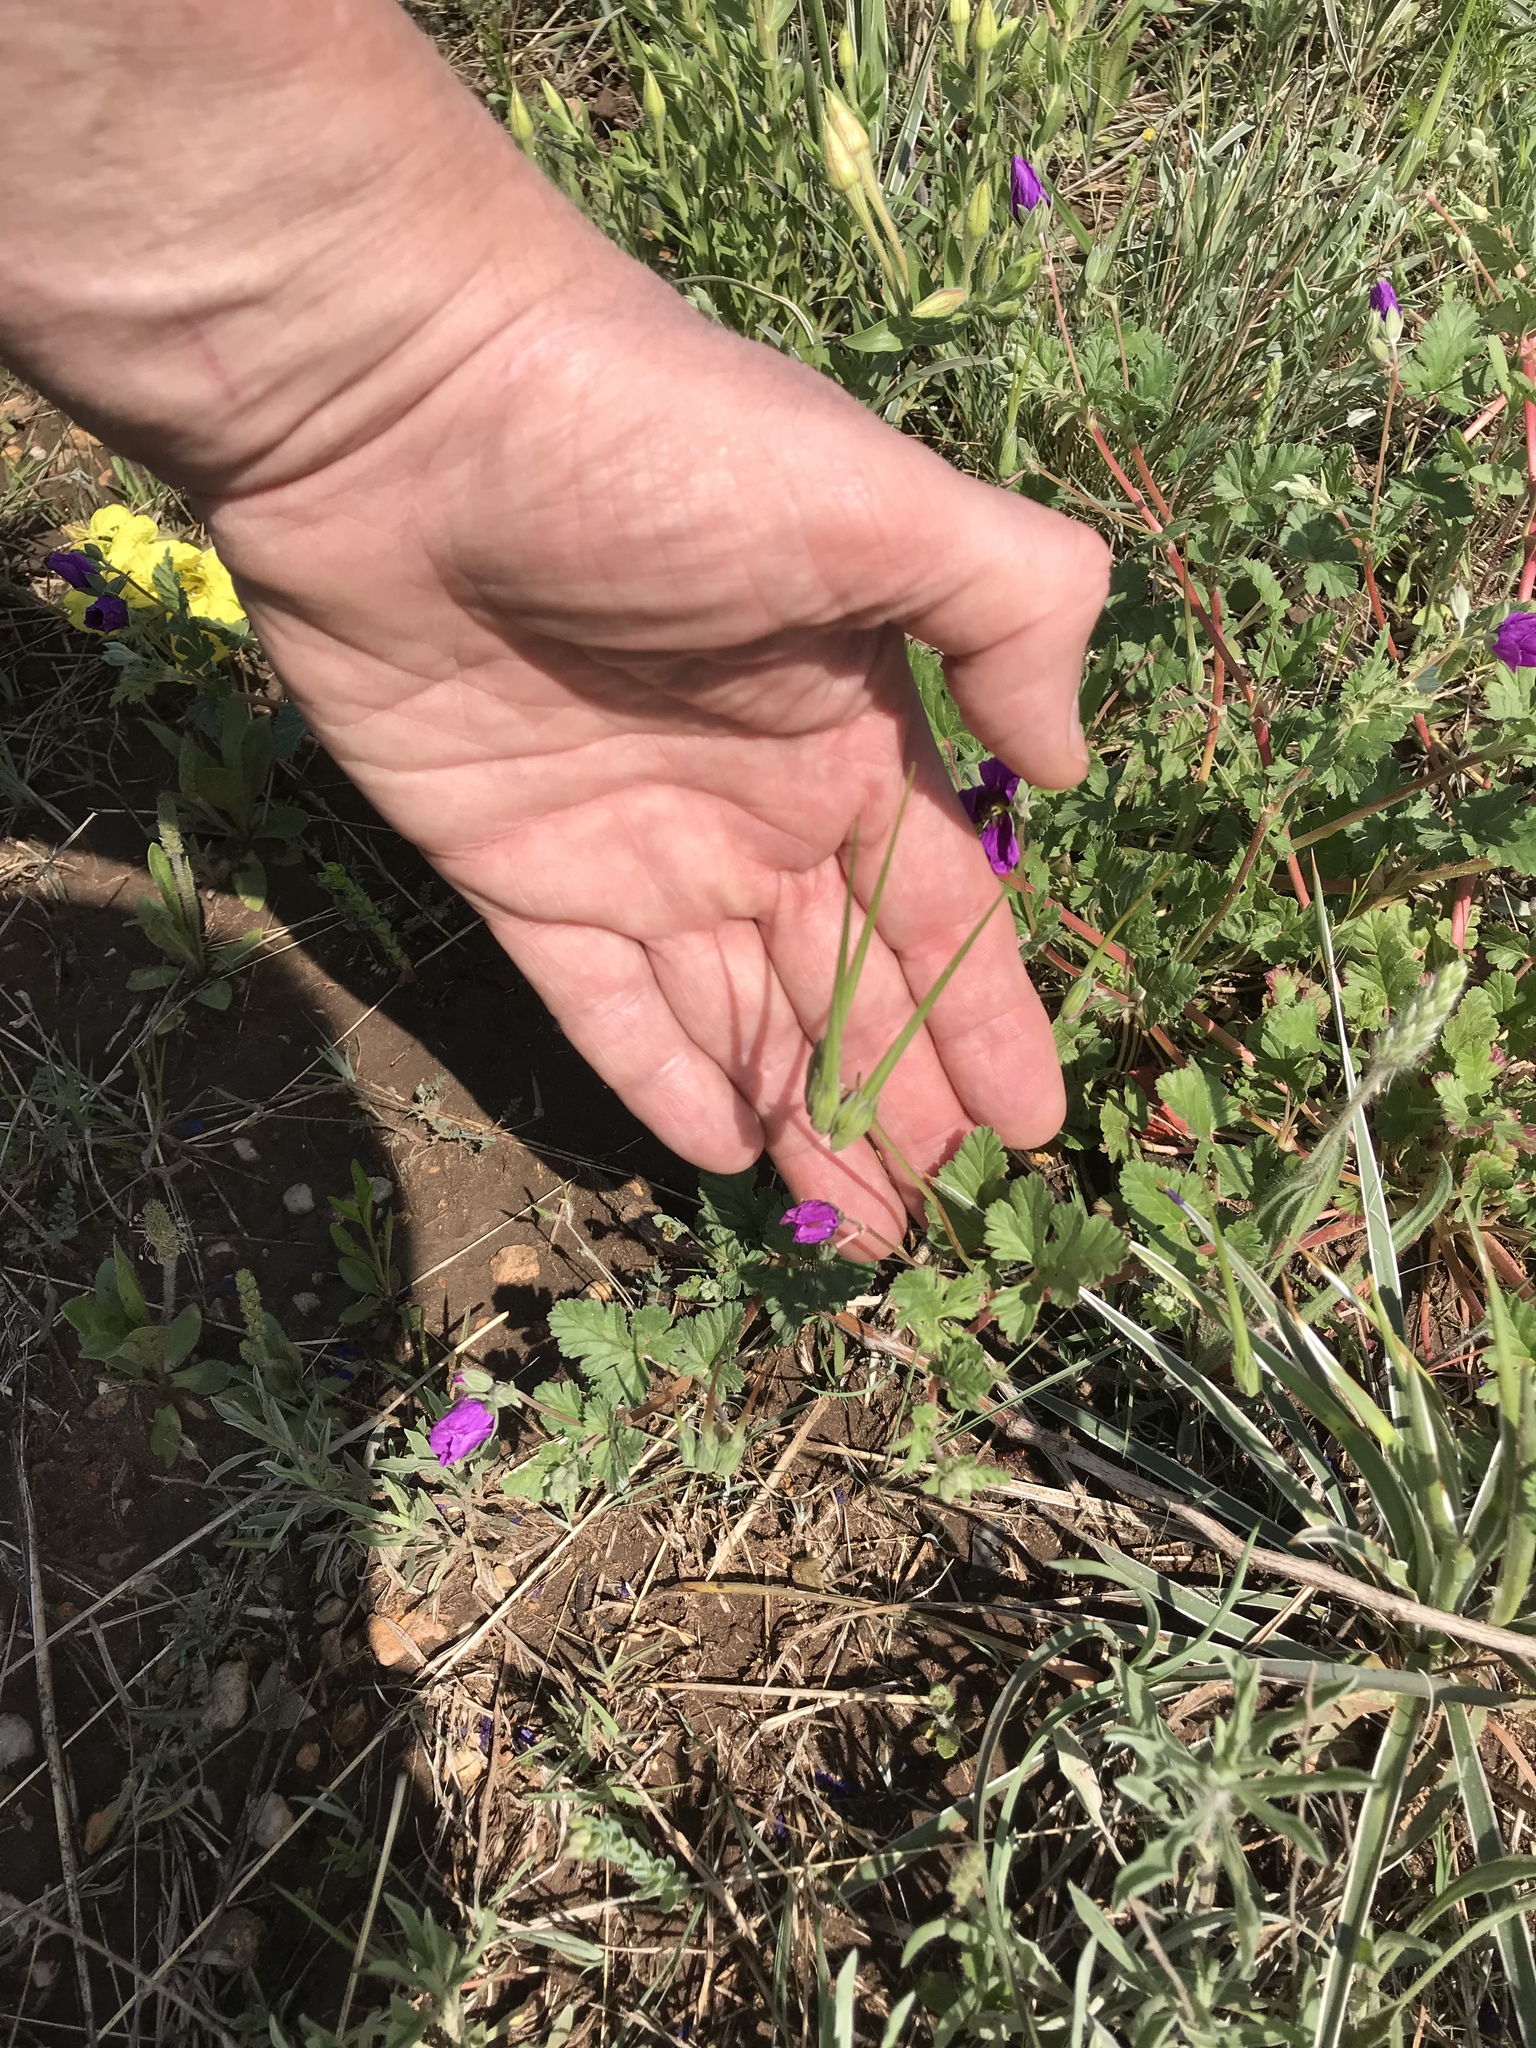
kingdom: Plantae
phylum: Tracheophyta
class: Magnoliopsida
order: Geraniales
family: Geraniaceae
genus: Erodium
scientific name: Erodium texanum
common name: Texas stork's-bill
